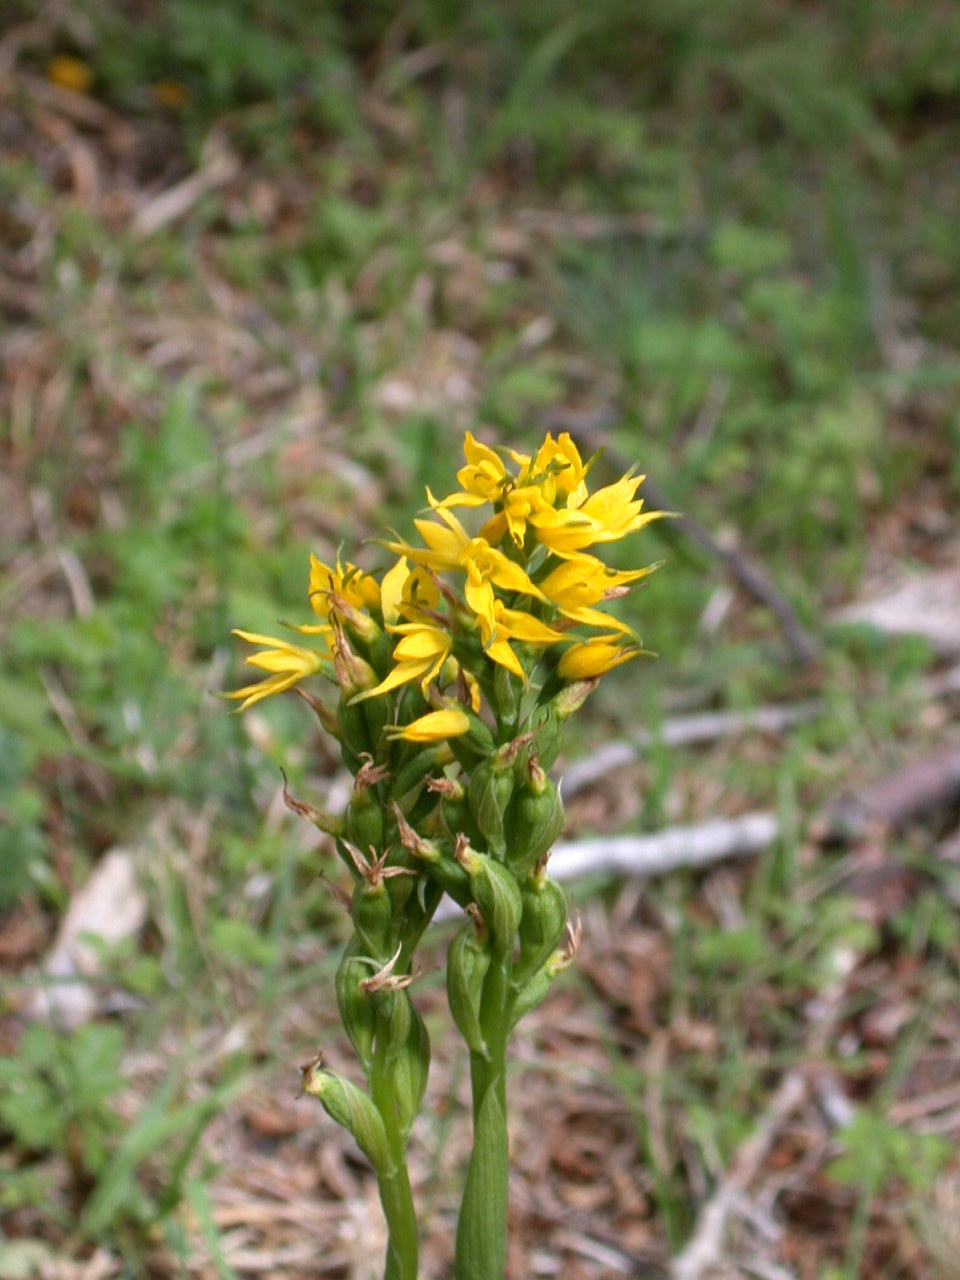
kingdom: Plantae
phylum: Tracheophyta
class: Liliopsida
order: Asparagales
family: Orchidaceae
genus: Gavilea
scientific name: Gavilea lutea
